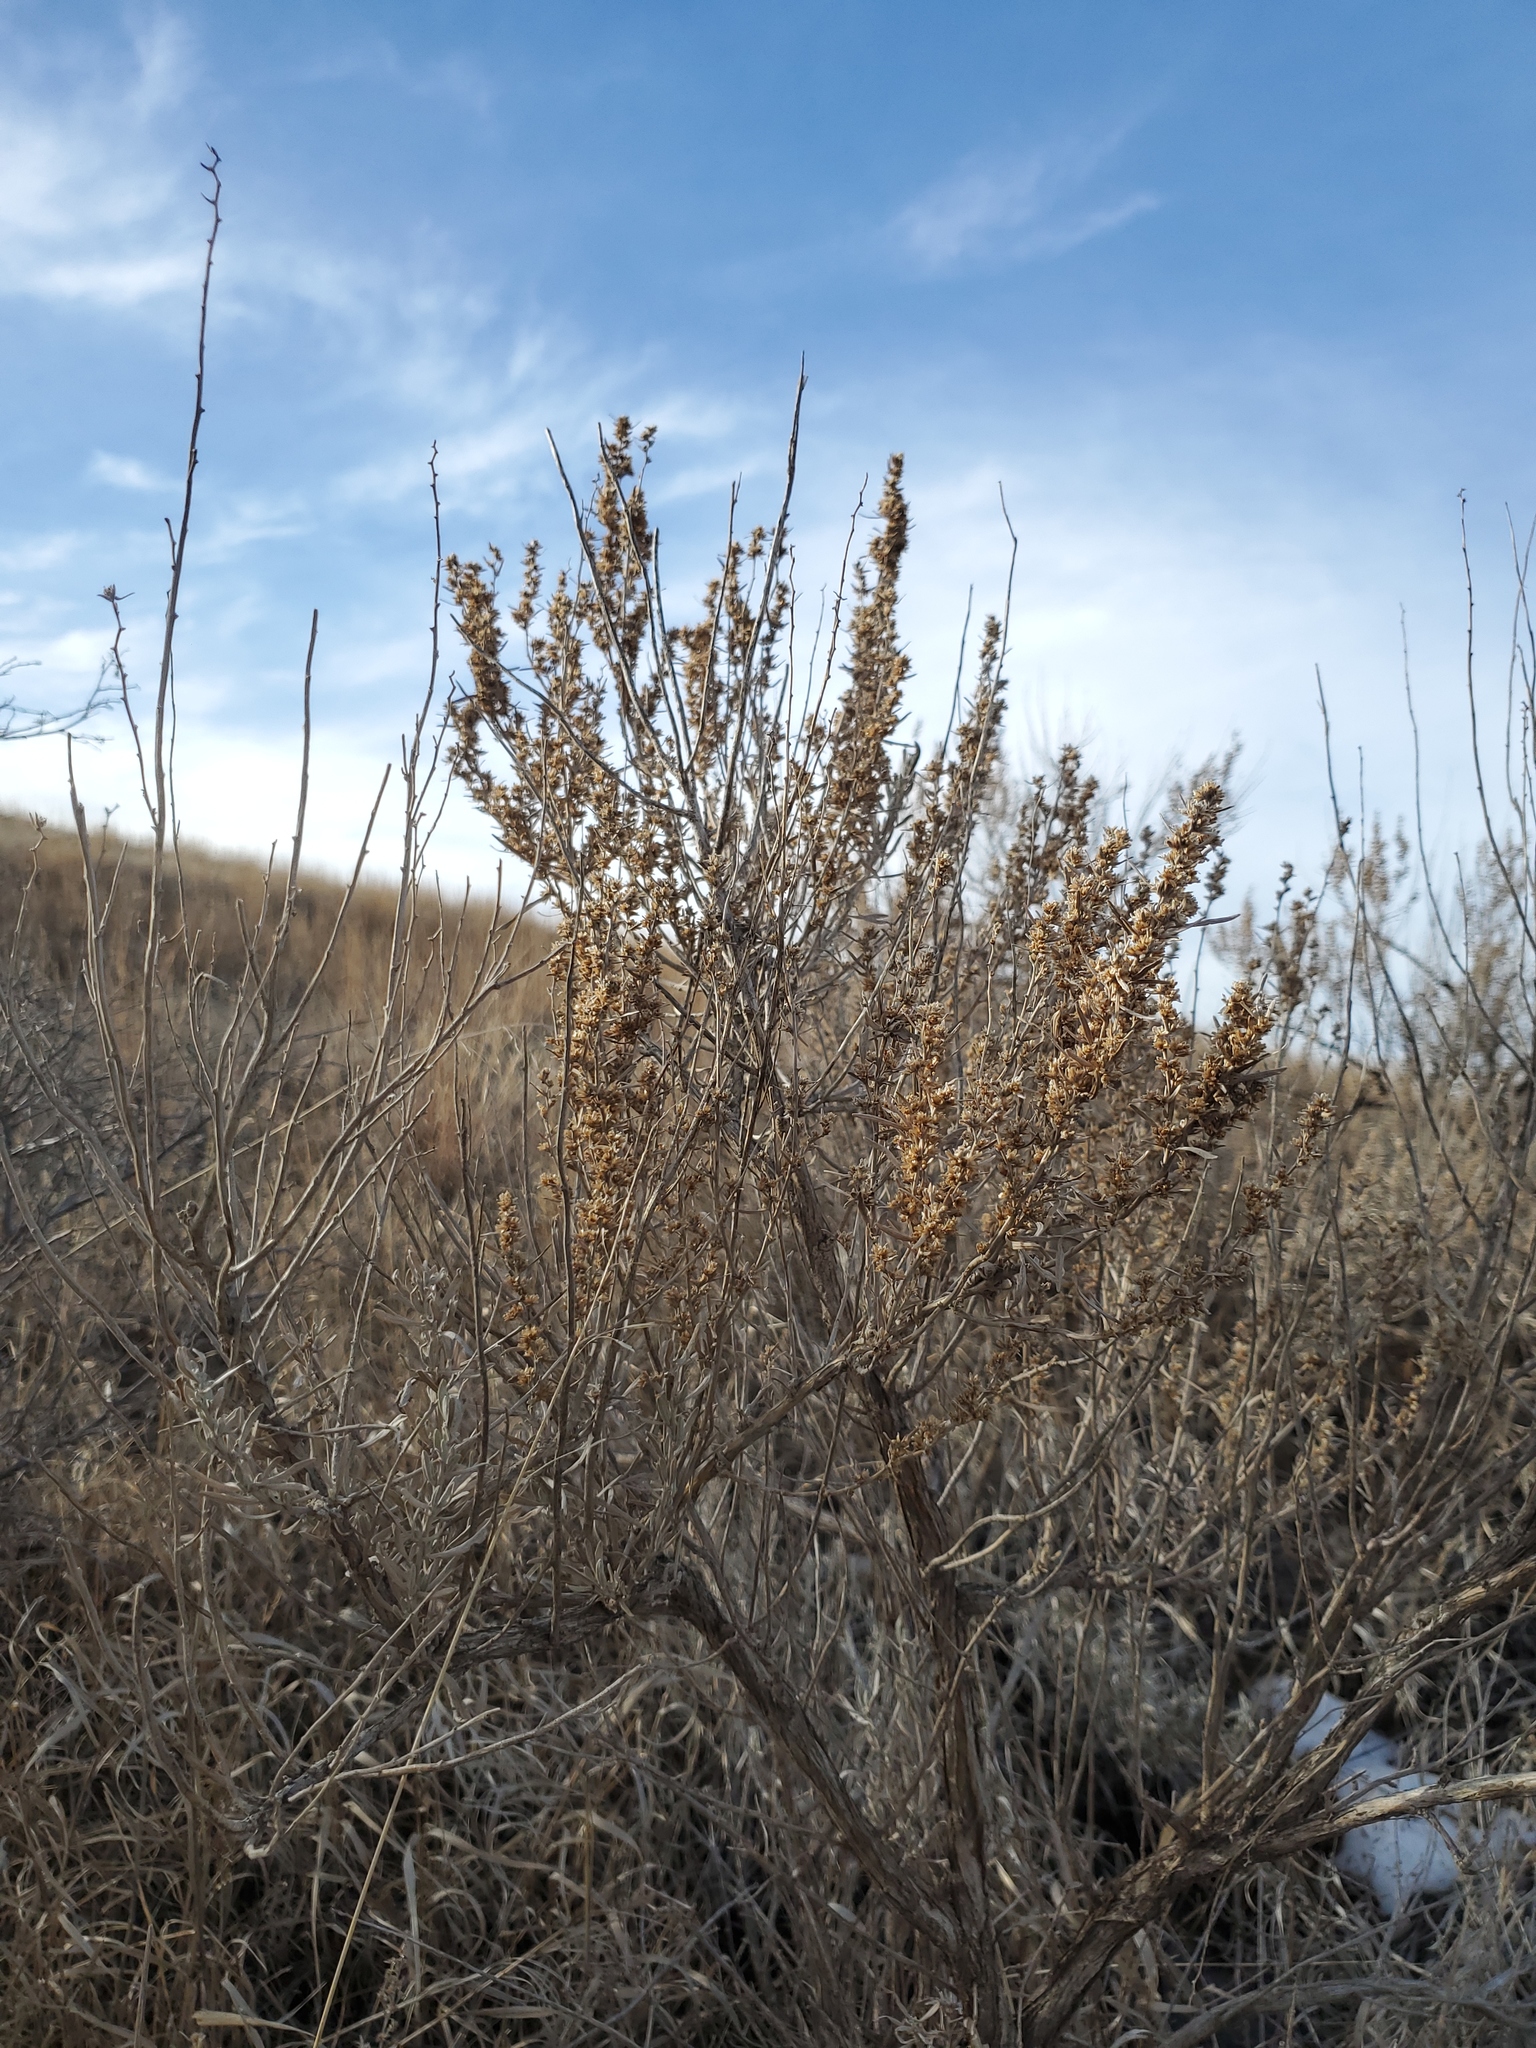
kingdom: Plantae
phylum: Tracheophyta
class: Magnoliopsida
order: Asterales
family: Asteraceae
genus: Artemisia
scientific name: Artemisia cana
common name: Silver sagebrush
